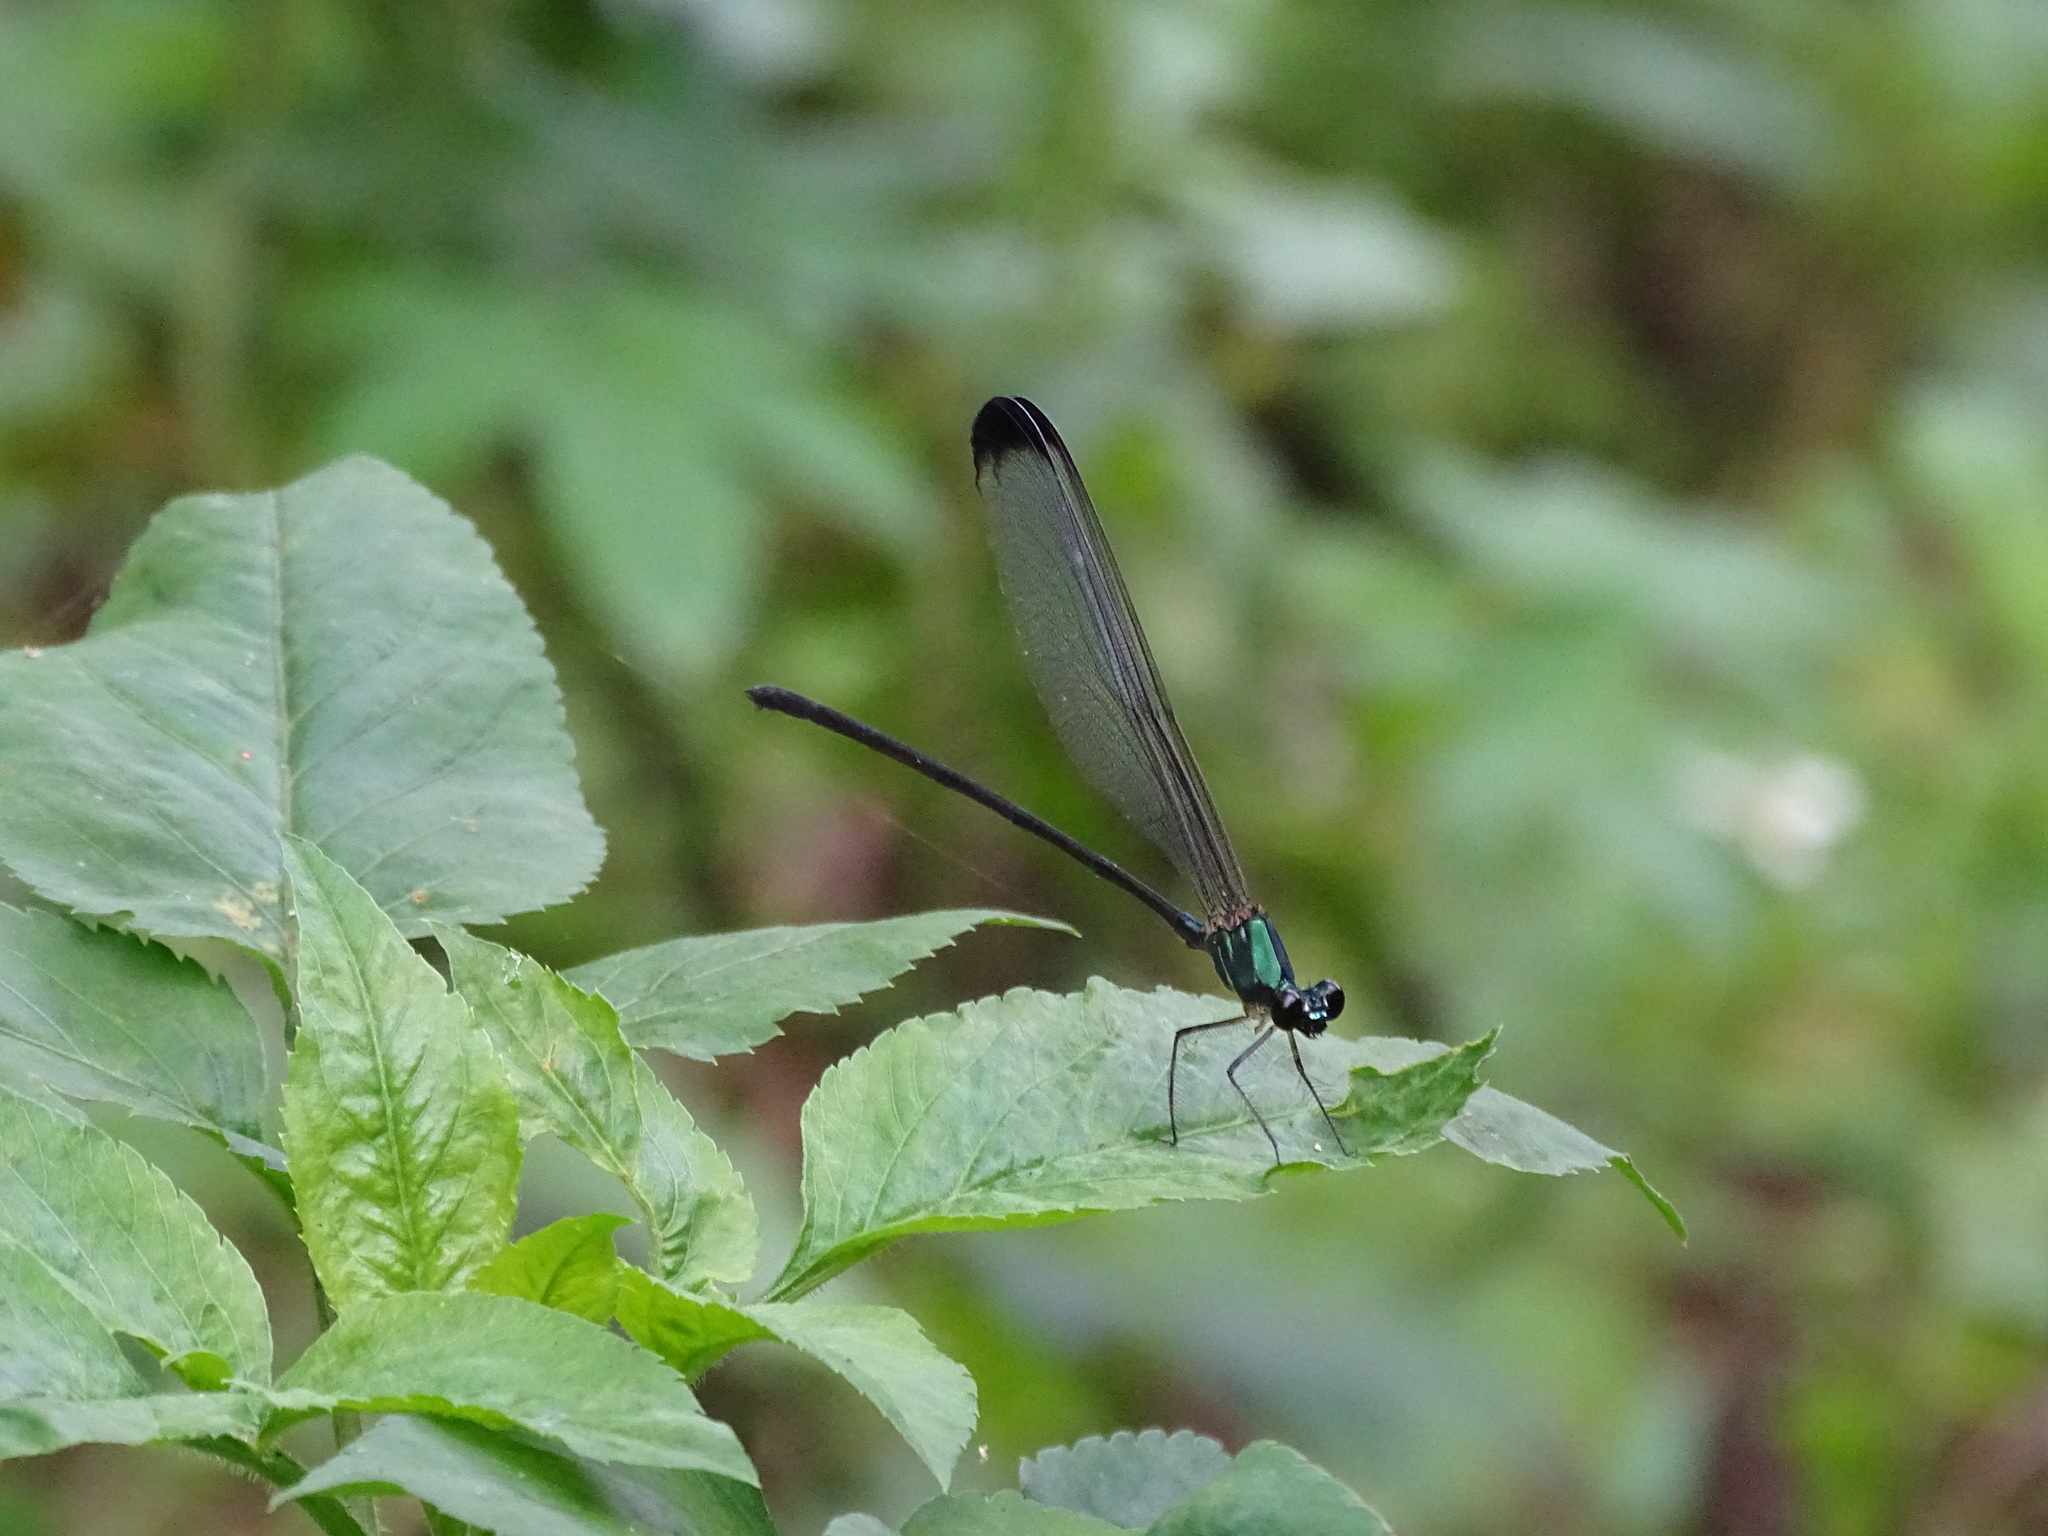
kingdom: Animalia
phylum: Arthropoda
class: Insecta
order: Odonata
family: Calopterygidae
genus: Psolodesmus
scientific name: Psolodesmus mandarinus
